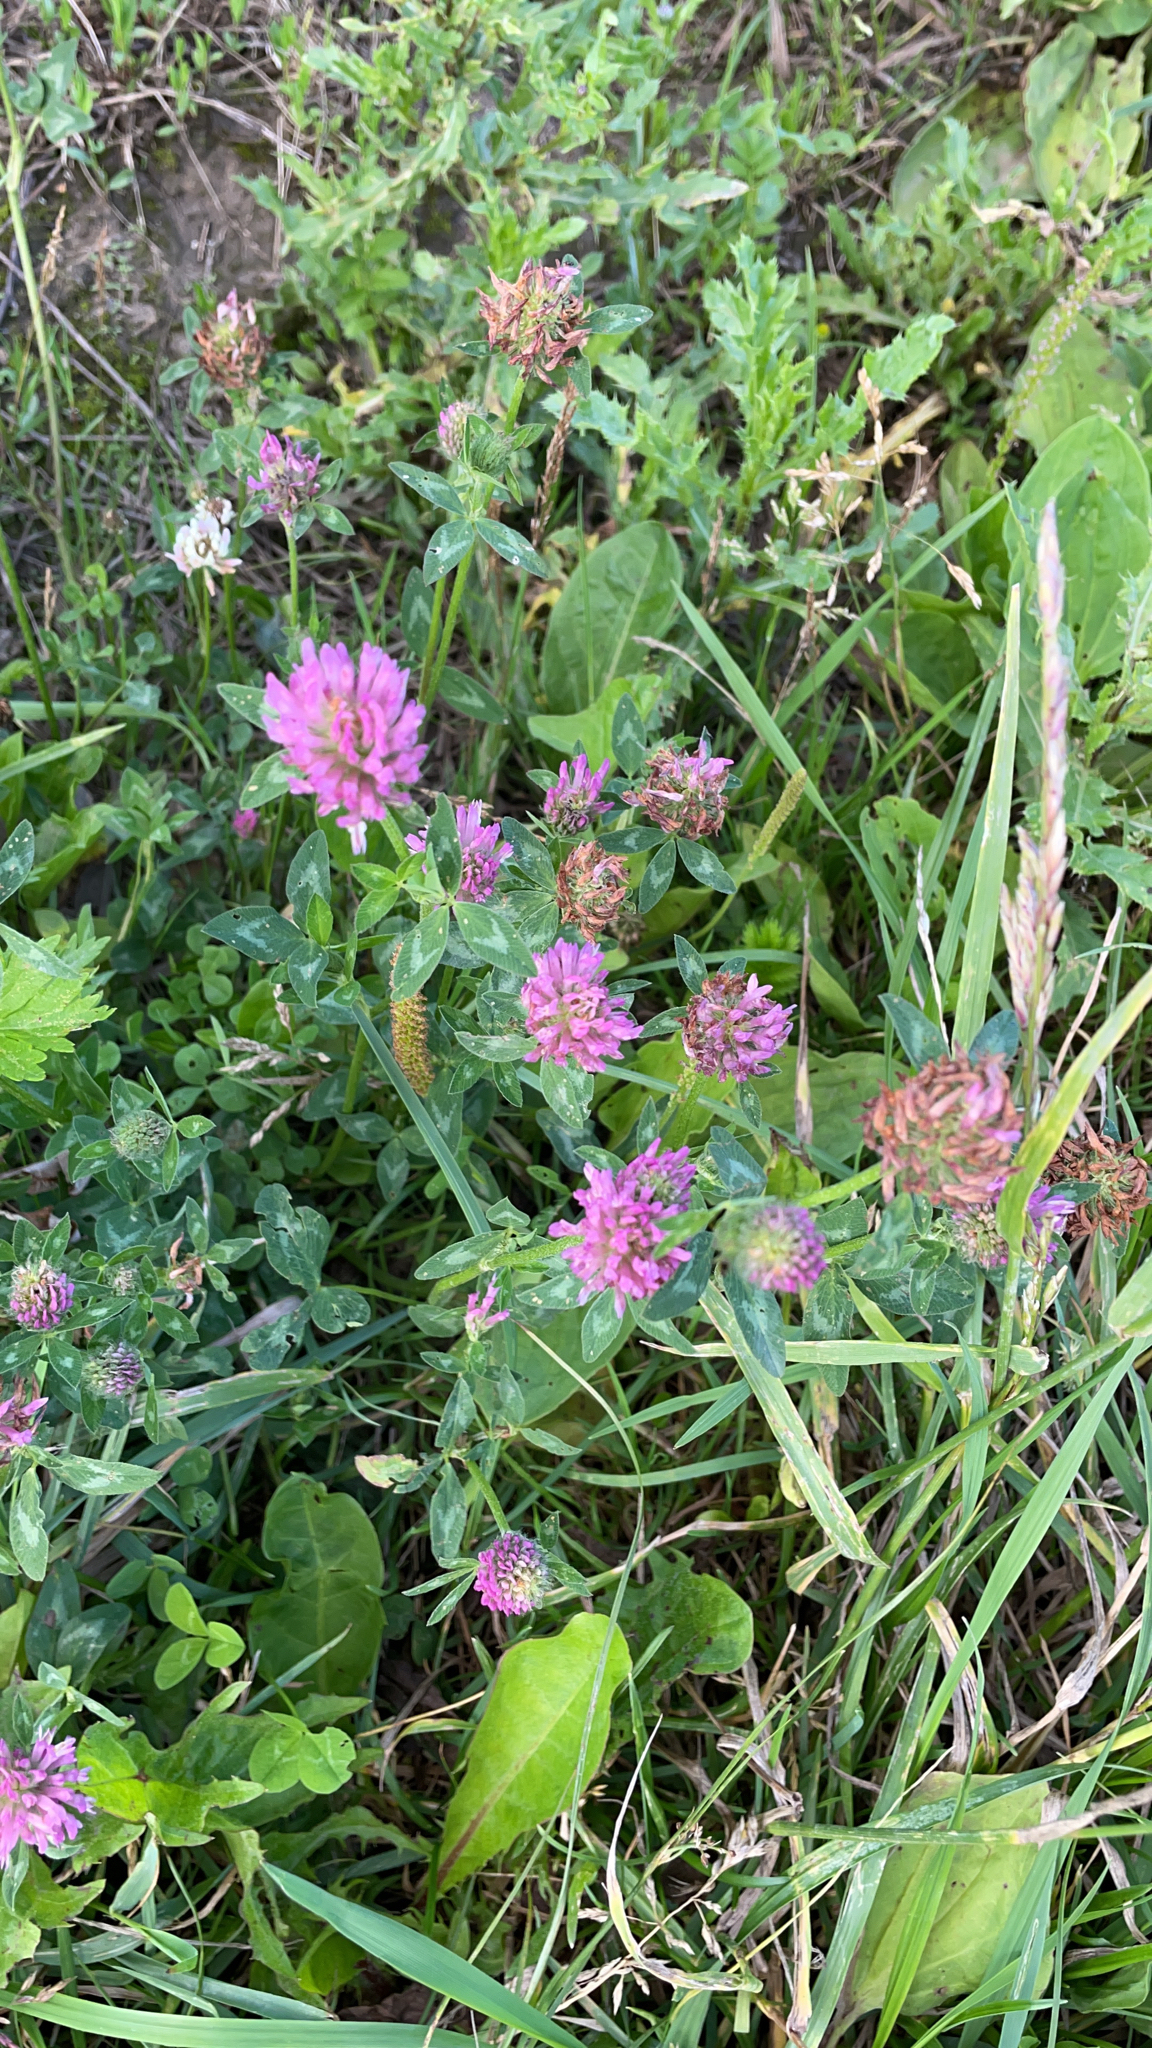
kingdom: Plantae
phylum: Tracheophyta
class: Magnoliopsida
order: Fabales
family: Fabaceae
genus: Trifolium
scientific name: Trifolium pratense
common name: Red clover
